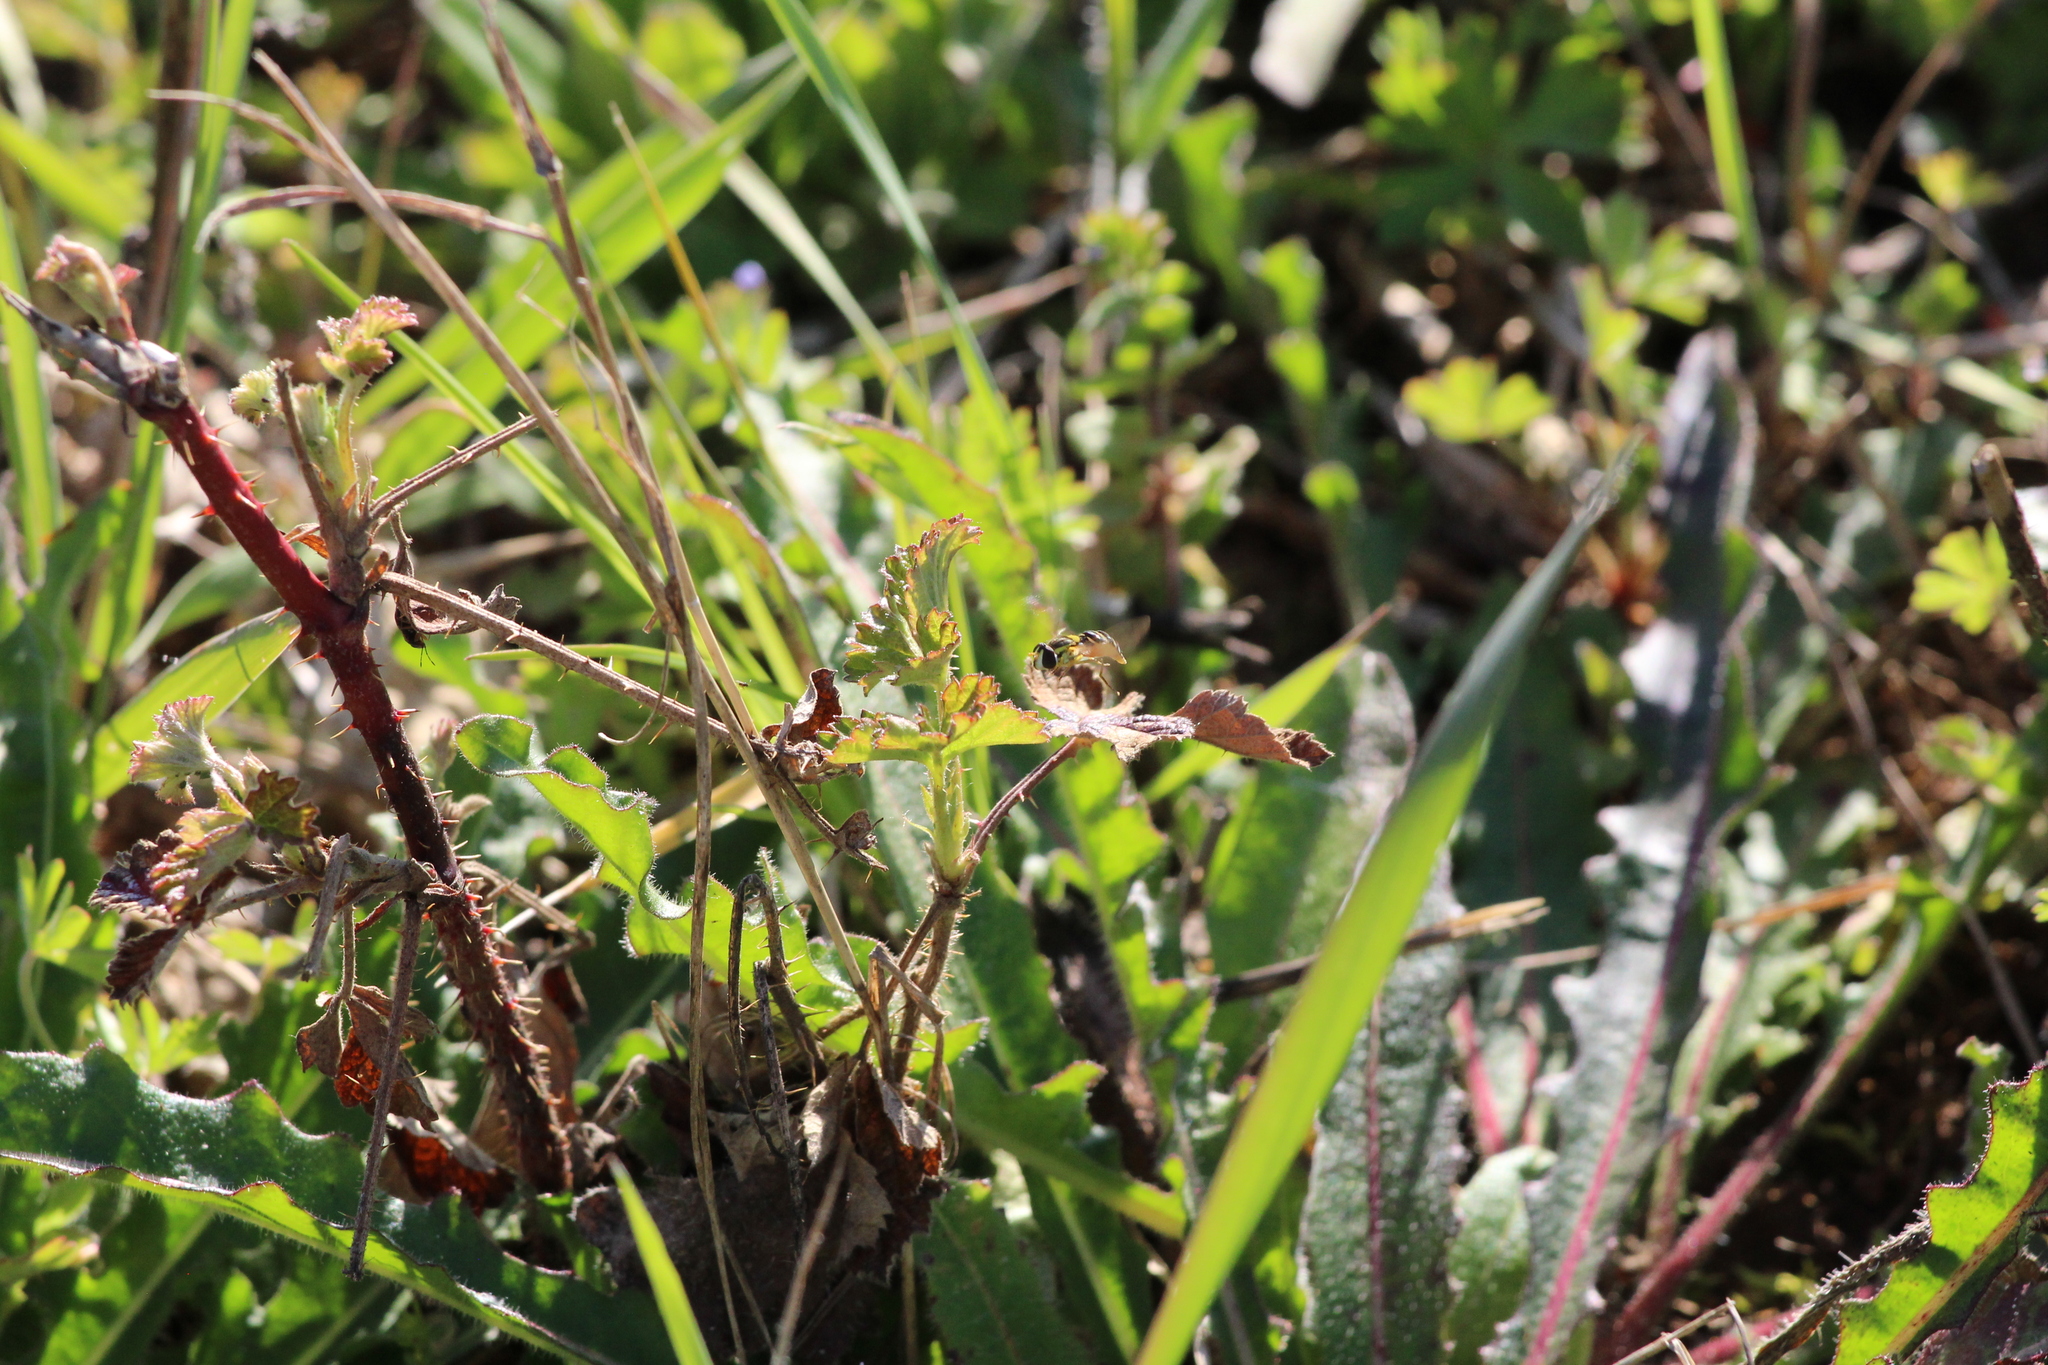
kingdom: Animalia
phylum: Arthropoda
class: Insecta
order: Diptera
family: Syrphidae
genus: Sphaerophoria
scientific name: Sphaerophoria
